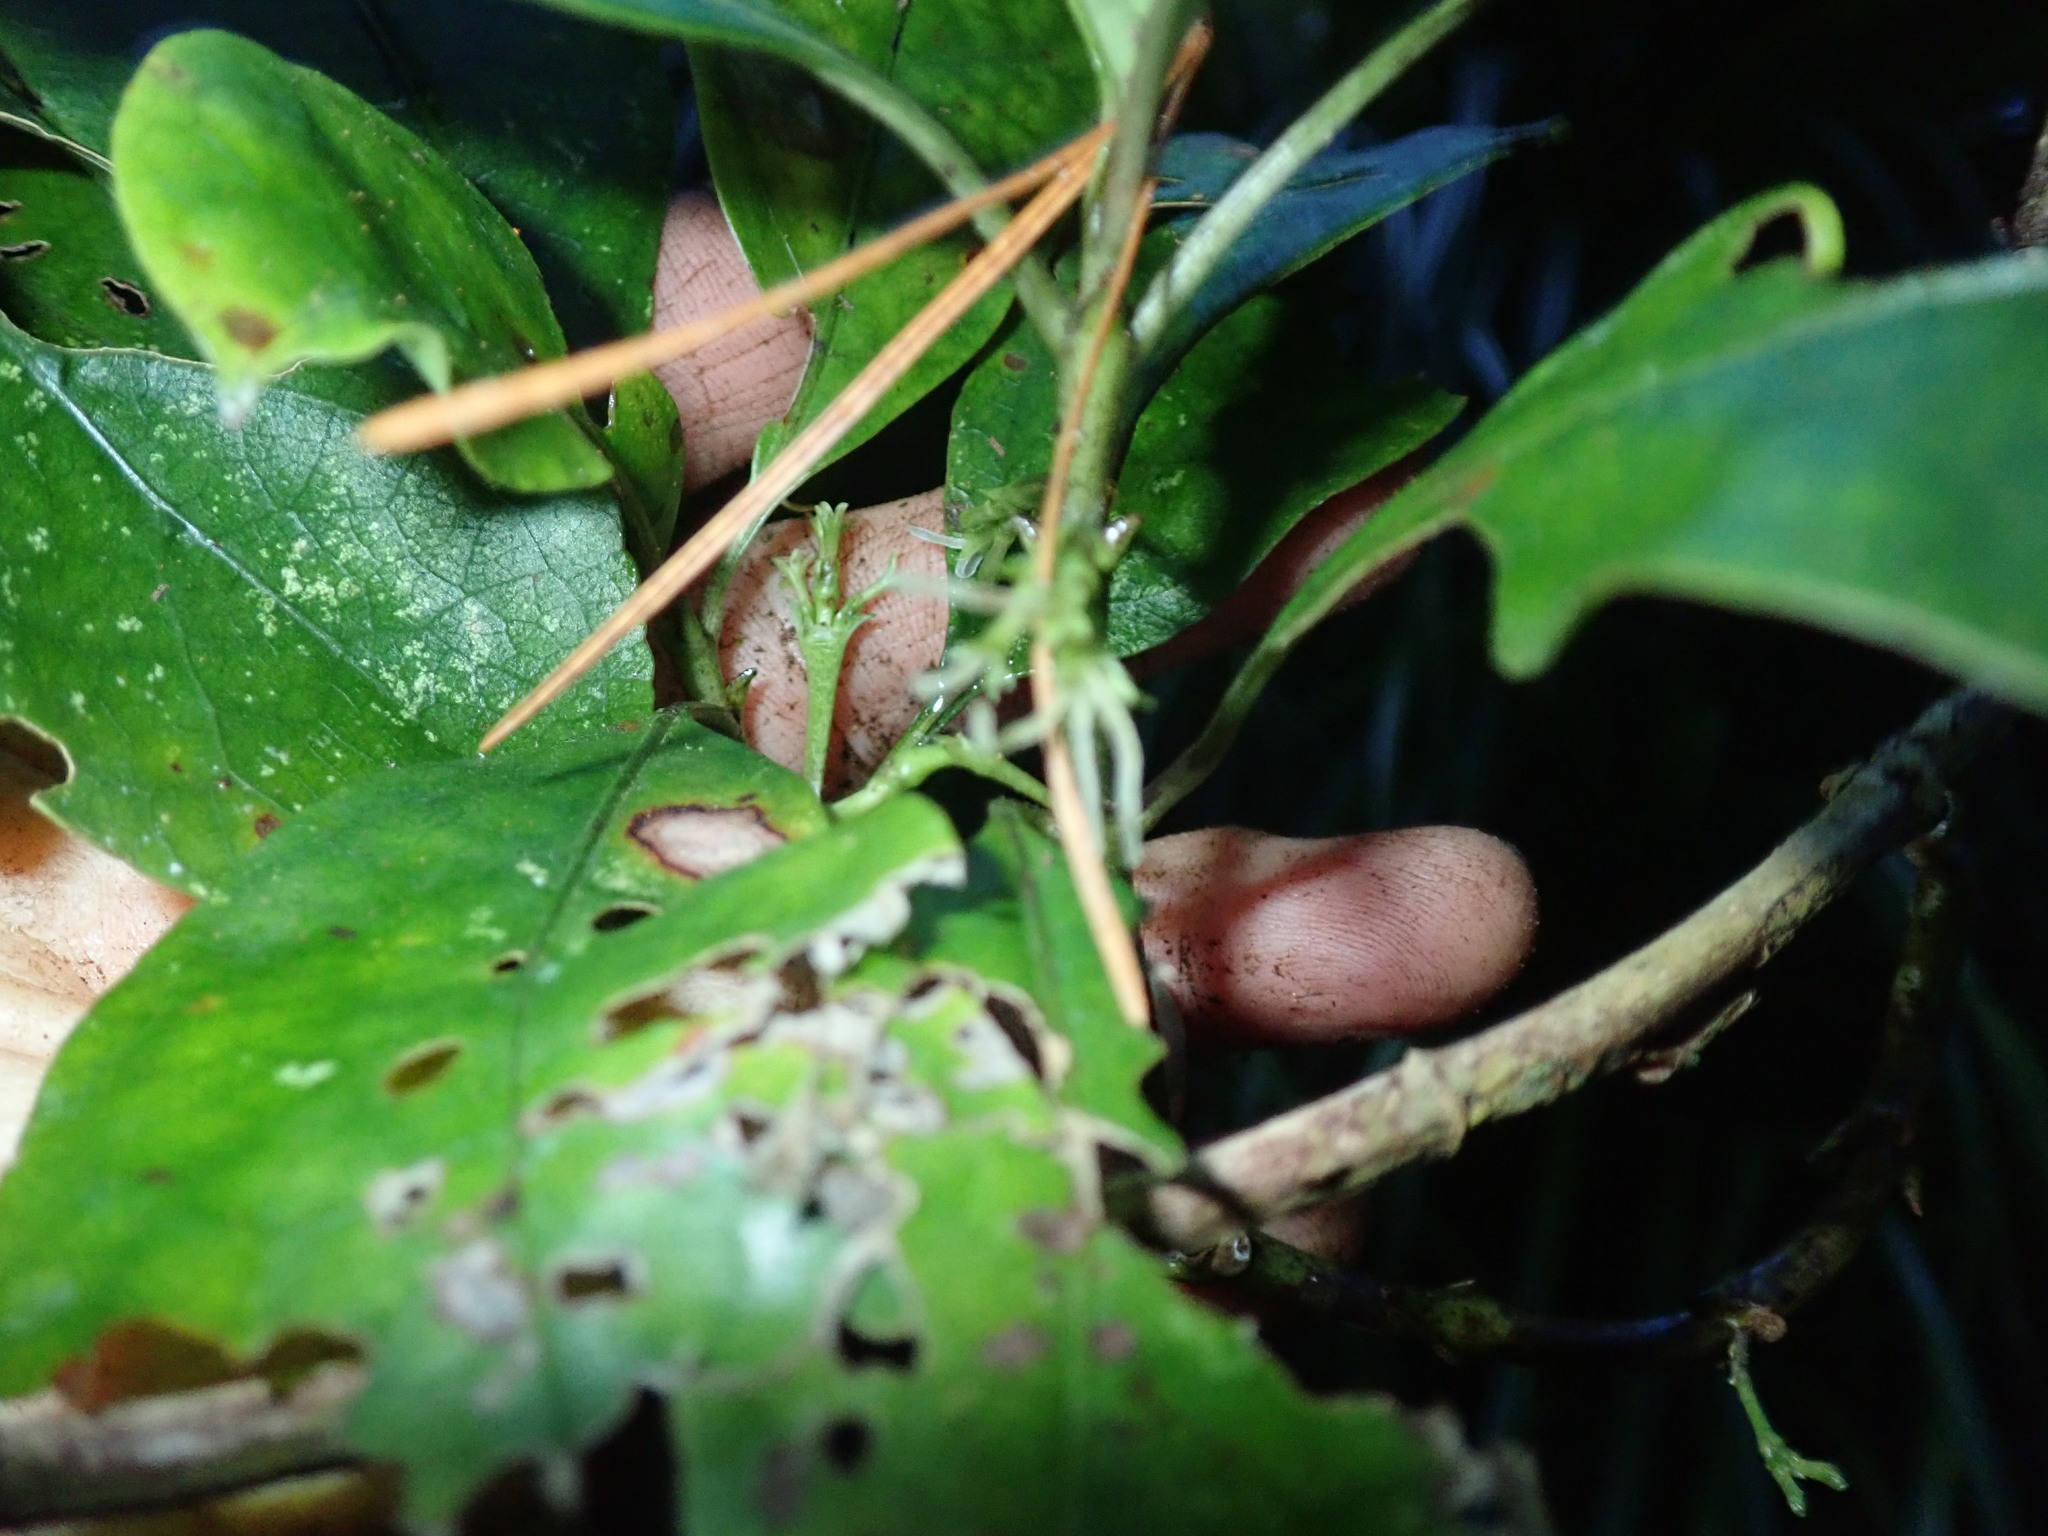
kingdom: Plantae
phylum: Tracheophyta
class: Magnoliopsida
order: Gentianales
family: Rubiaceae
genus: Coprosma
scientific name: Coprosma autumnalis
